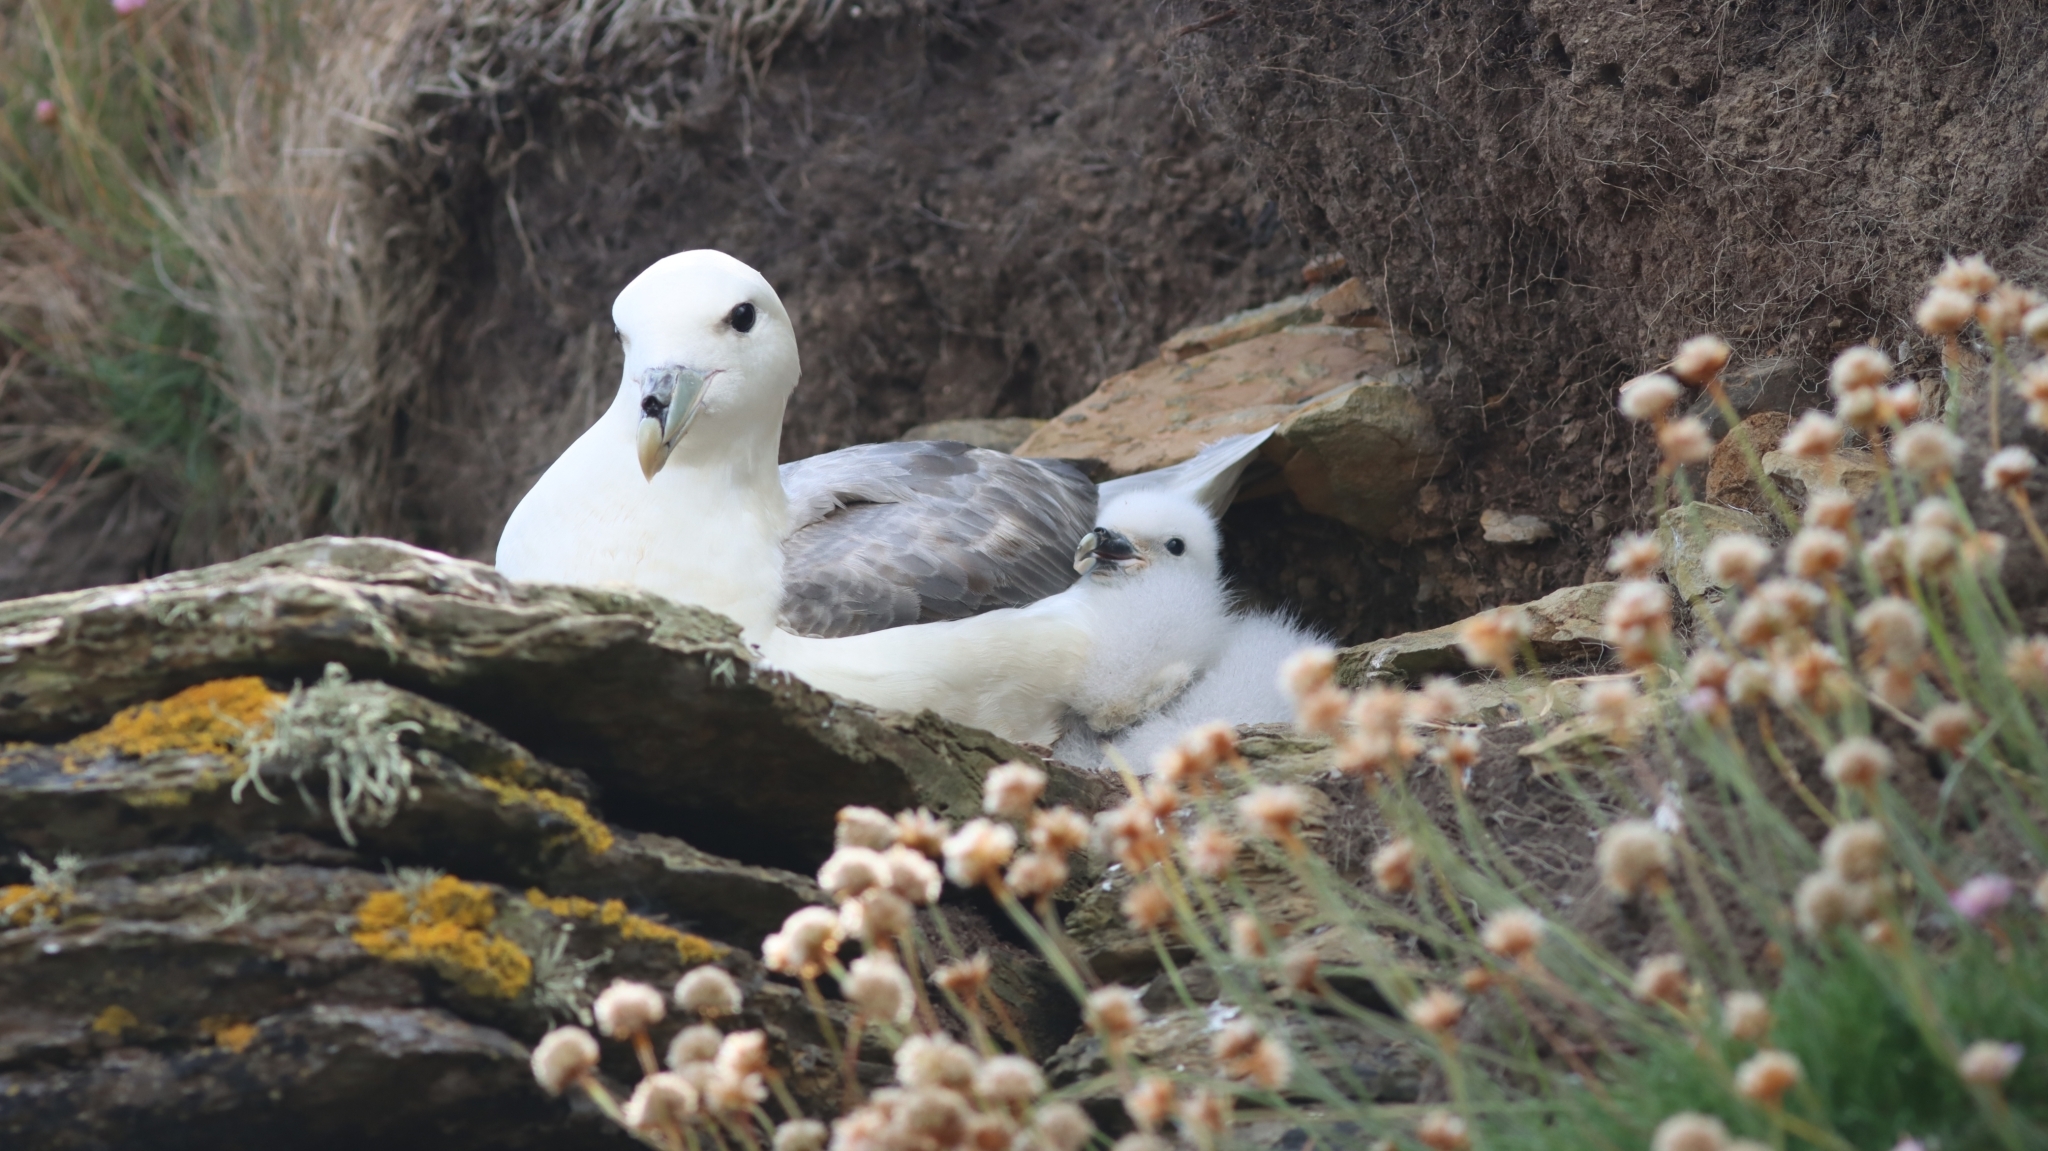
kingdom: Animalia
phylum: Chordata
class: Aves
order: Procellariiformes
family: Procellariidae
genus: Fulmarus
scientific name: Fulmarus glacialis
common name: Northern fulmar
